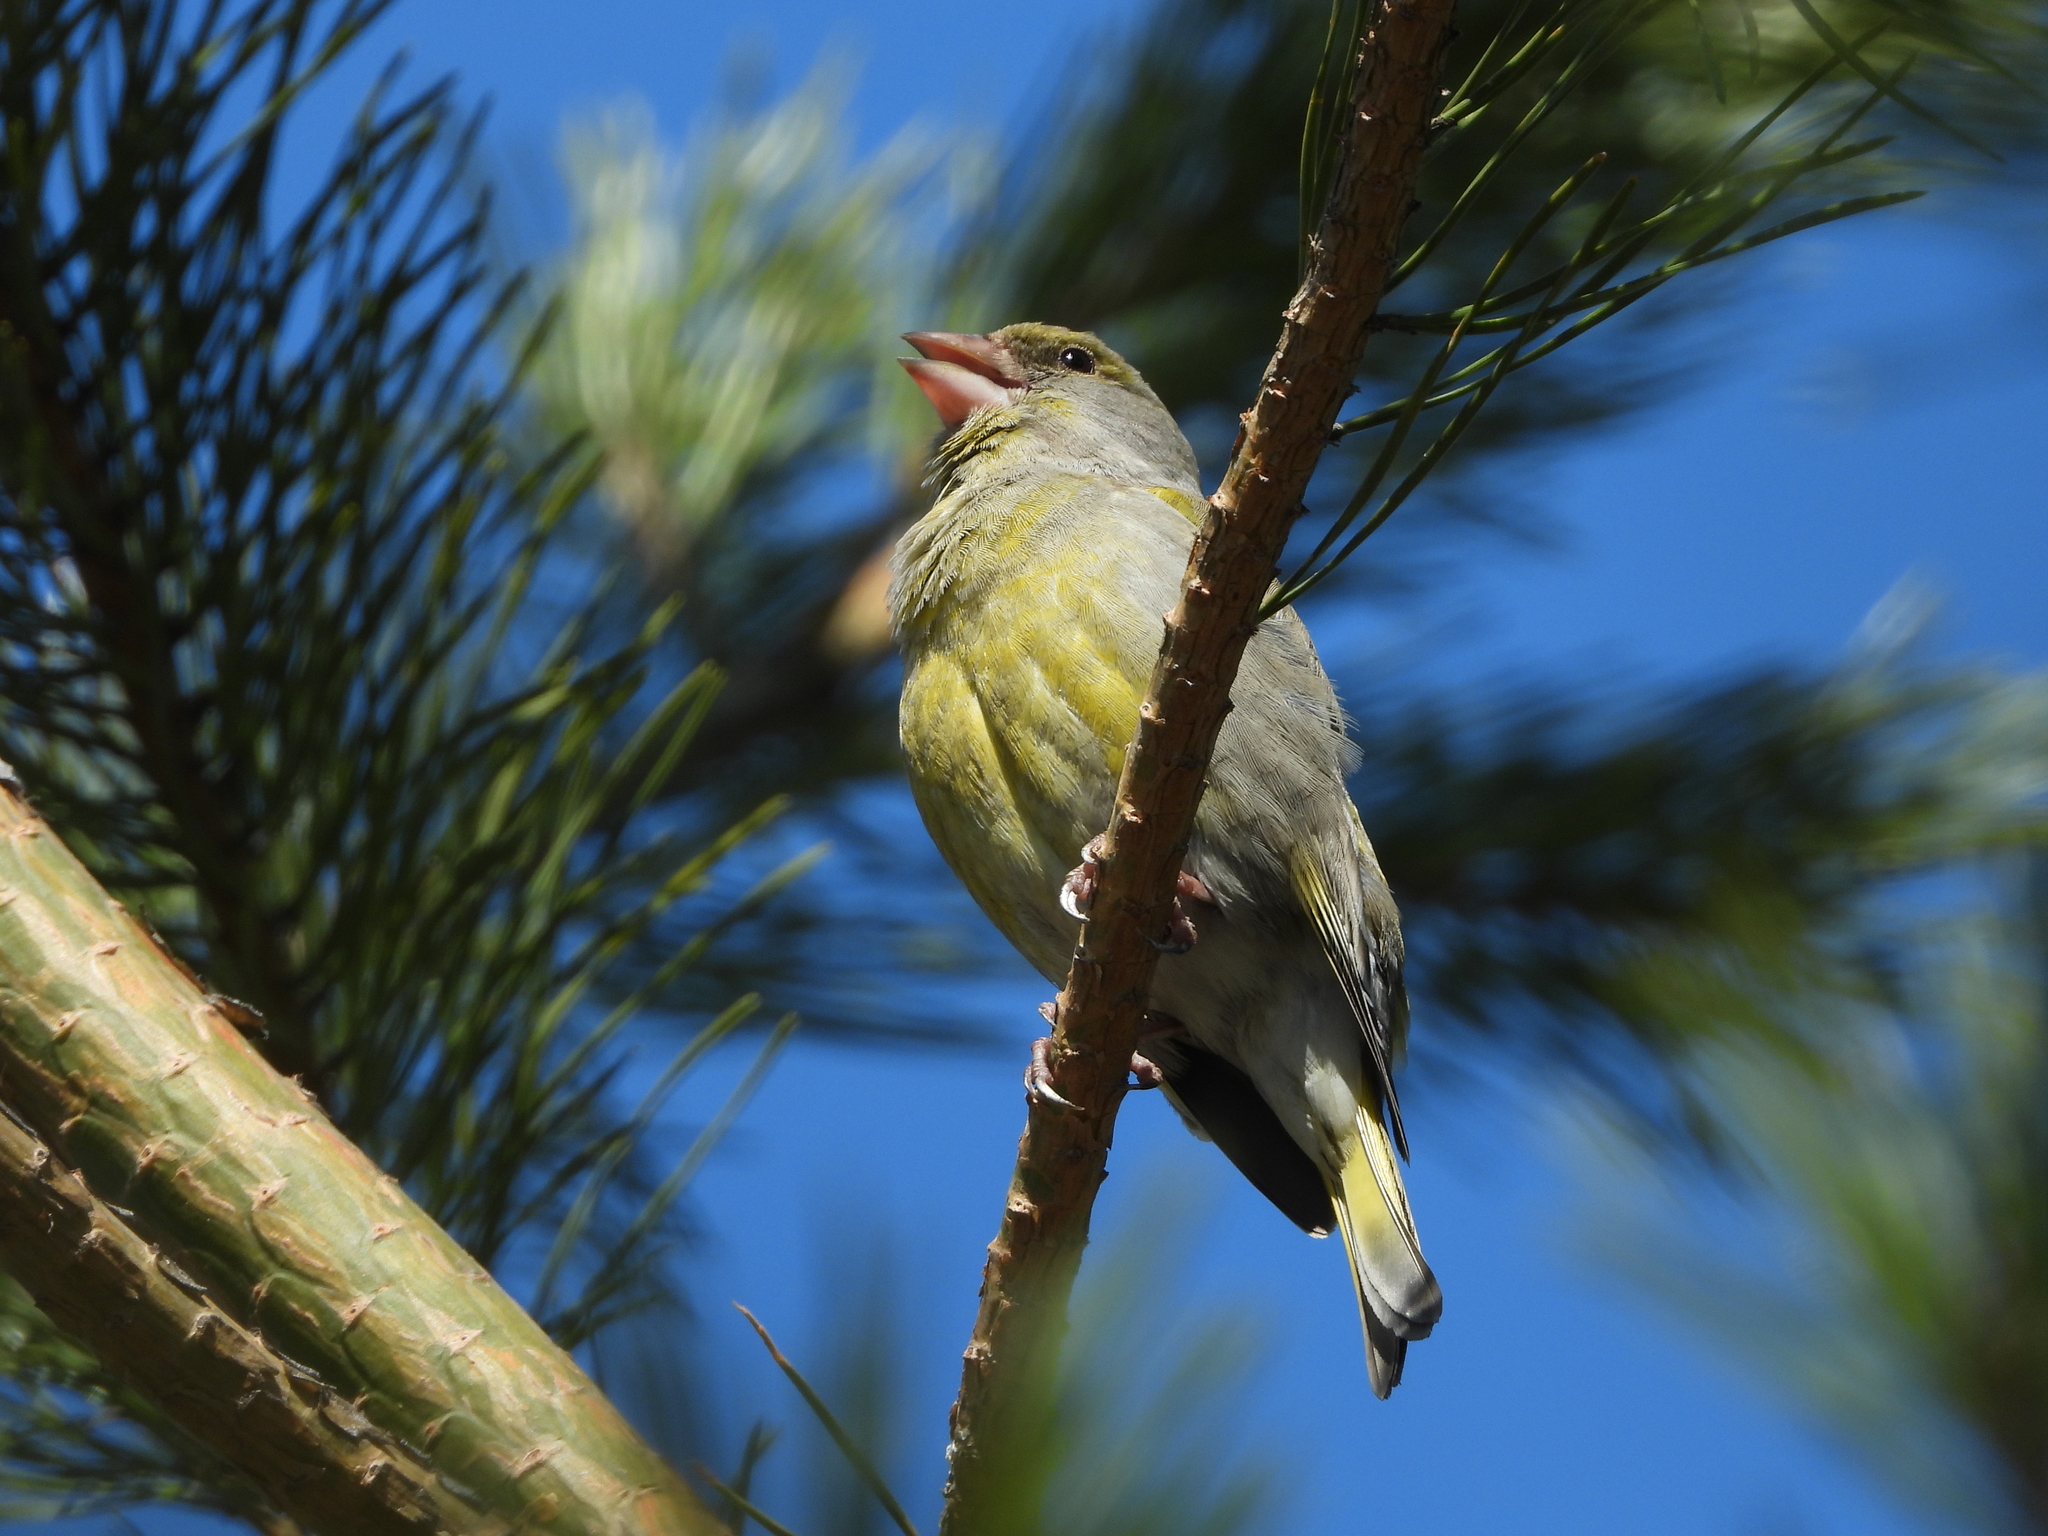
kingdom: Plantae
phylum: Tracheophyta
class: Liliopsida
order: Poales
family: Poaceae
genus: Chloris
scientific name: Chloris chloris
